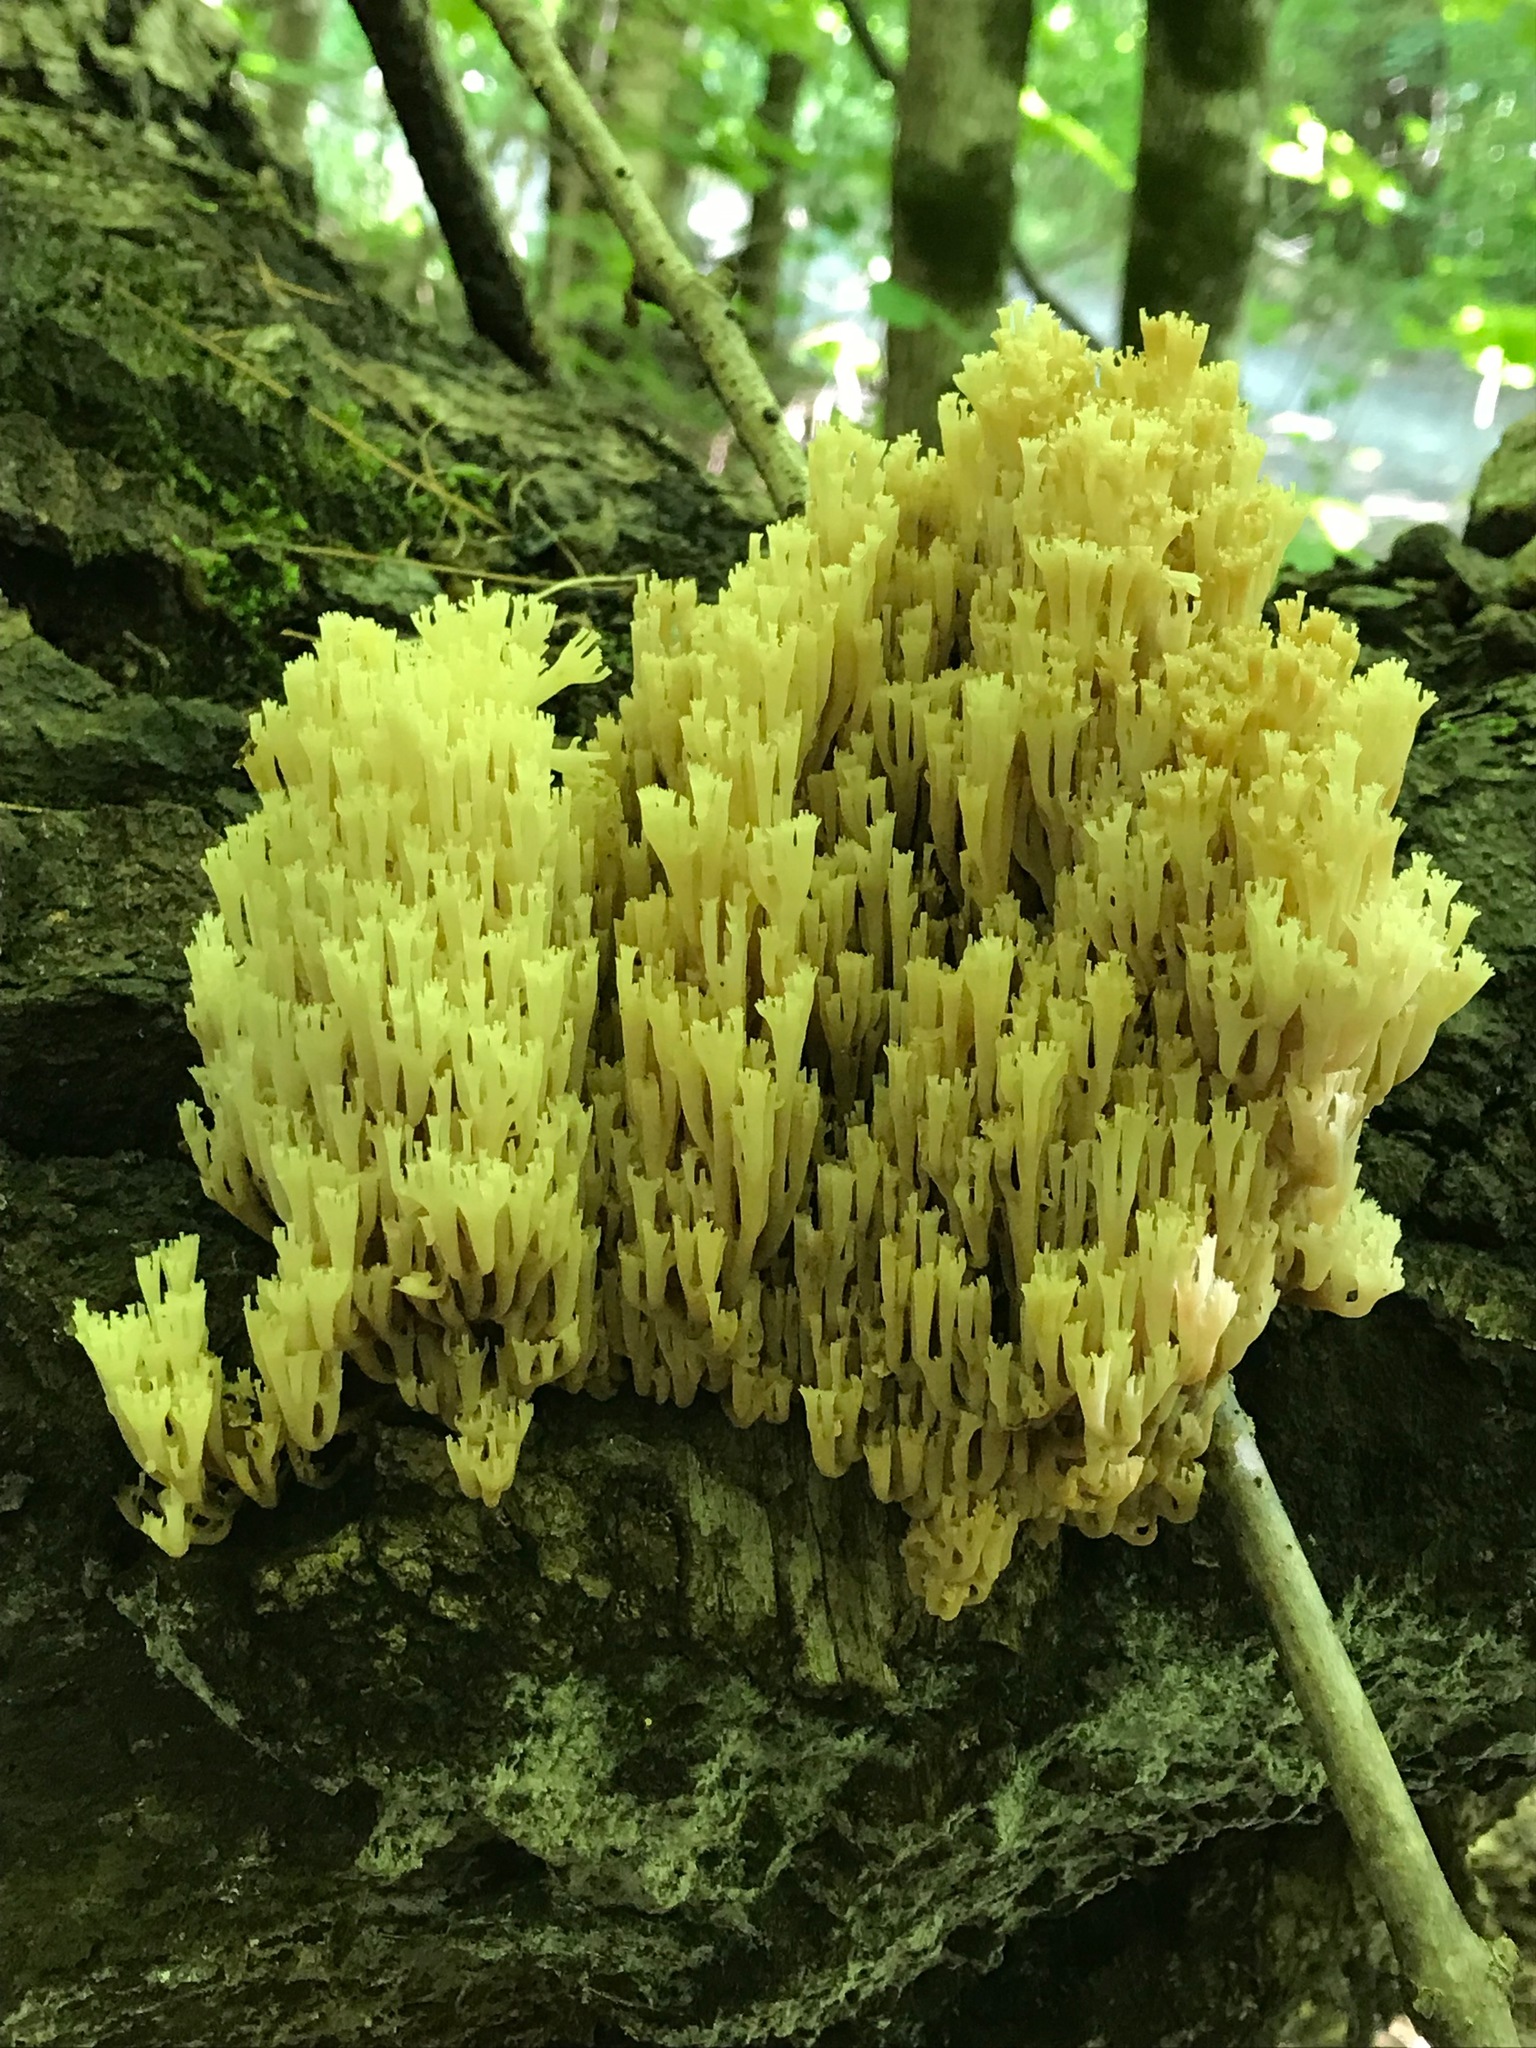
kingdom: Fungi
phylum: Basidiomycota
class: Agaricomycetes
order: Russulales
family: Auriscalpiaceae
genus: Artomyces
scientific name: Artomyces pyxidatus
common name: Crown-tipped coral fungus
